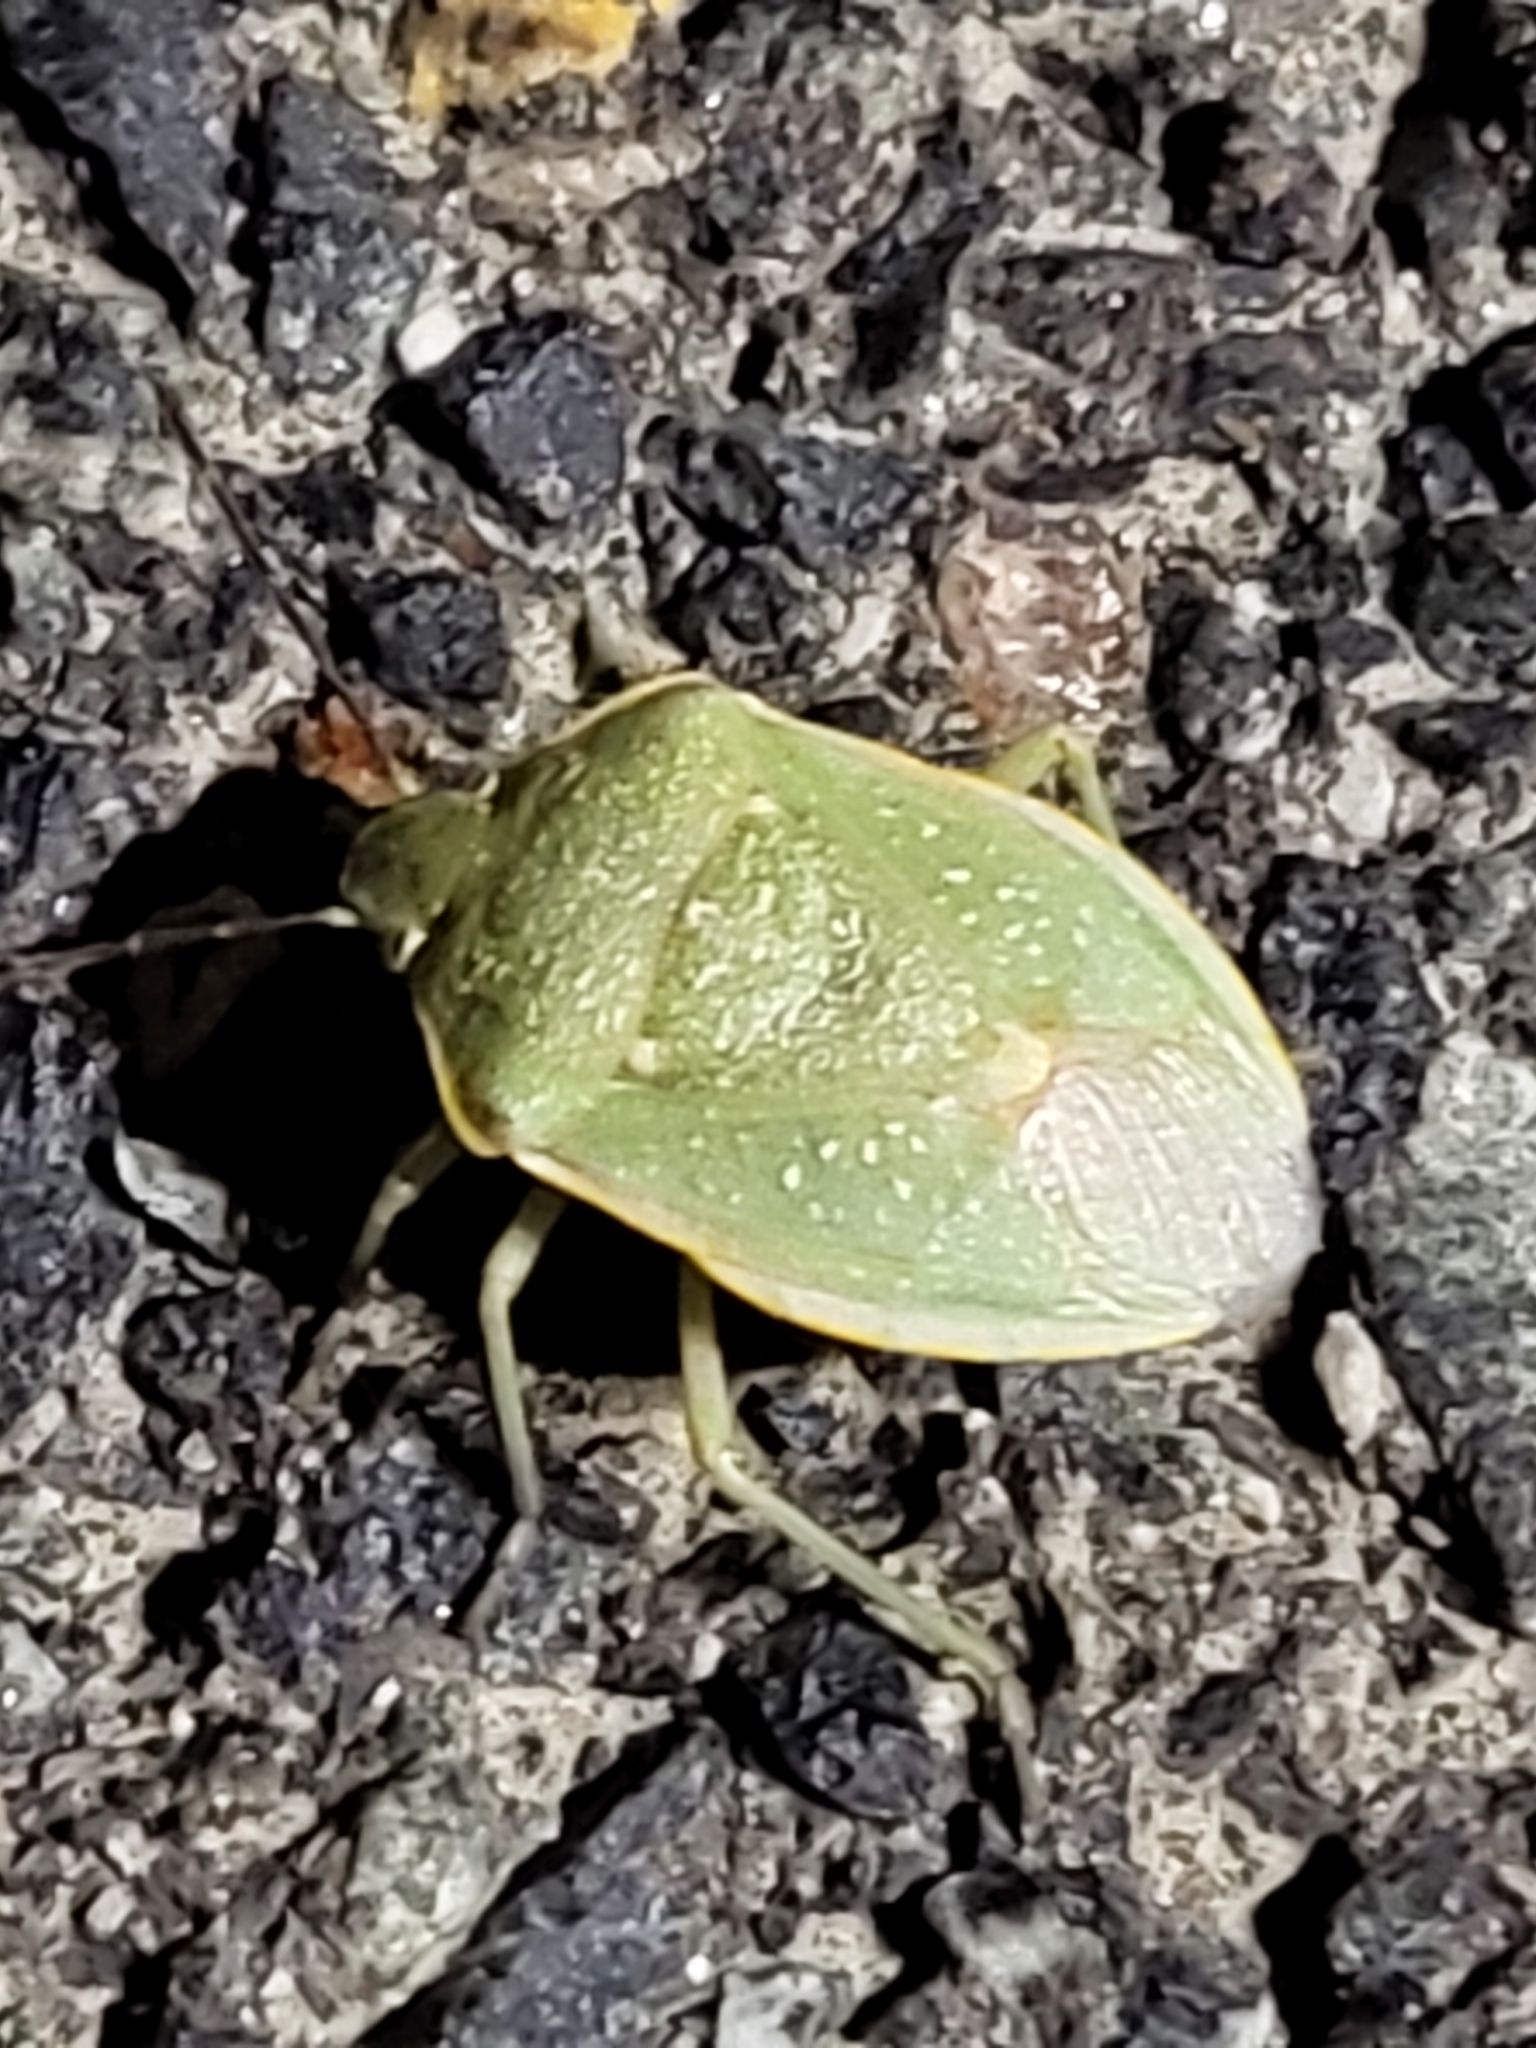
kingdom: Animalia
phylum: Arthropoda
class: Insecta
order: Hemiptera
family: Pentatomidae
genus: Chlorochroa
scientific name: Chlorochroa uhleri
